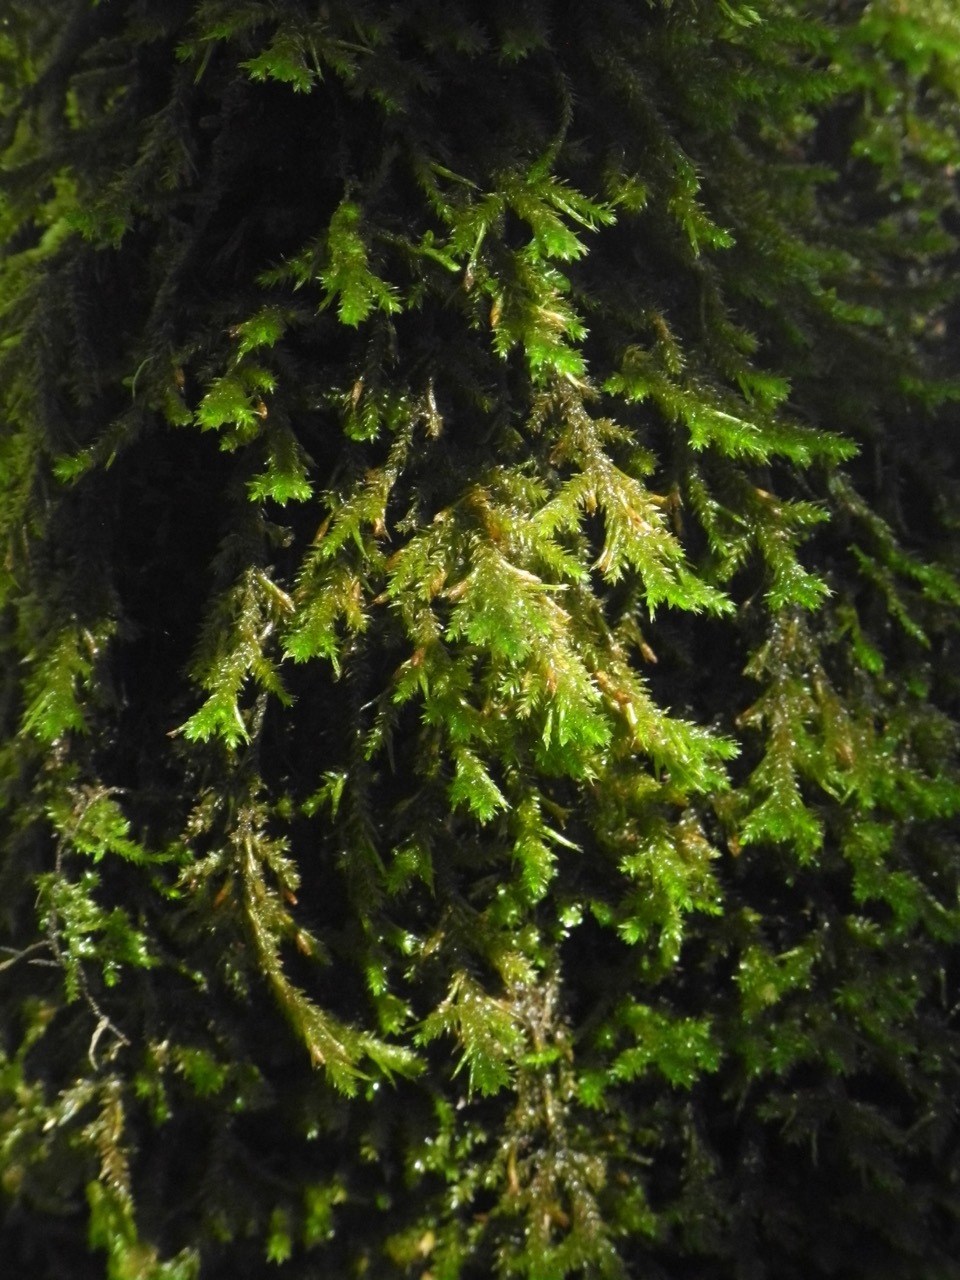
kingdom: Plantae
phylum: Bryophyta
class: Bryopsida
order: Hypnales
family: Neckeraceae
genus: Forsstroemia
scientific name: Forsstroemia trichomitria
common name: Fan moss
